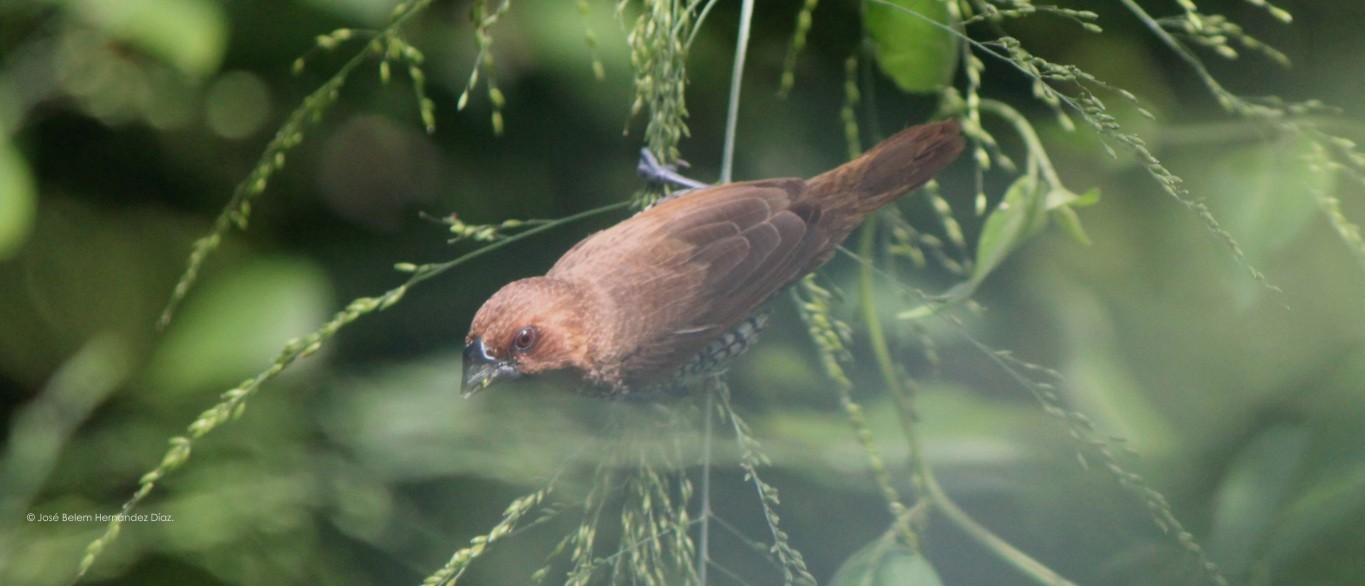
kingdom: Animalia
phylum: Chordata
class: Aves
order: Passeriformes
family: Estrildidae
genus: Lonchura
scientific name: Lonchura punctulata
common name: Scaly-breasted munia
